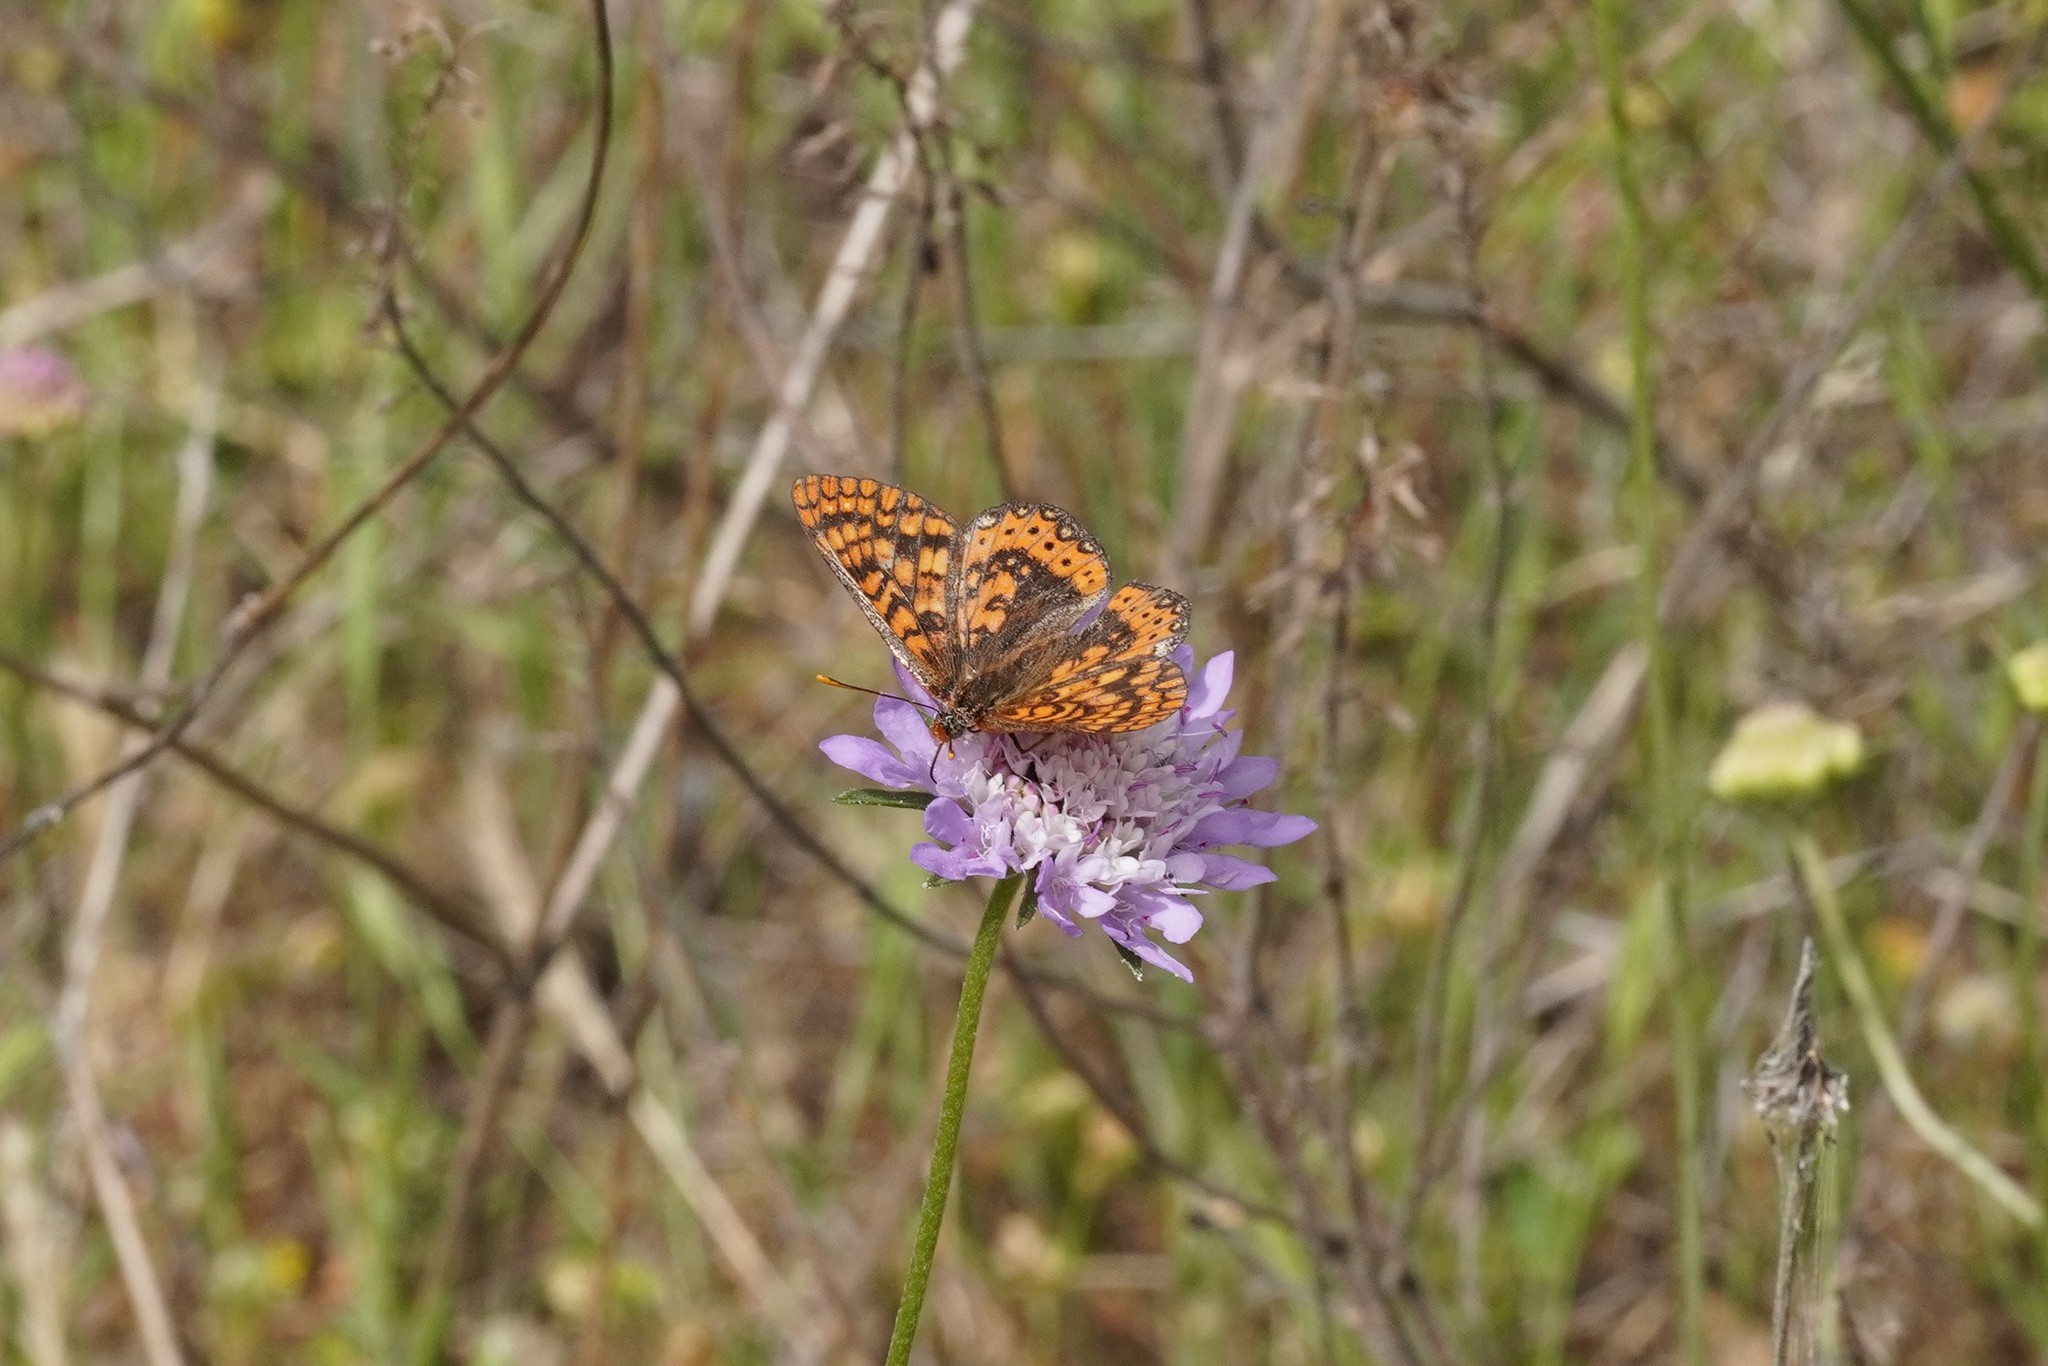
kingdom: Animalia
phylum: Arthropoda
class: Insecta
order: Lepidoptera
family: Nymphalidae
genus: Euphydryas
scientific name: Euphydryas aurinia
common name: Marsh fritillary
